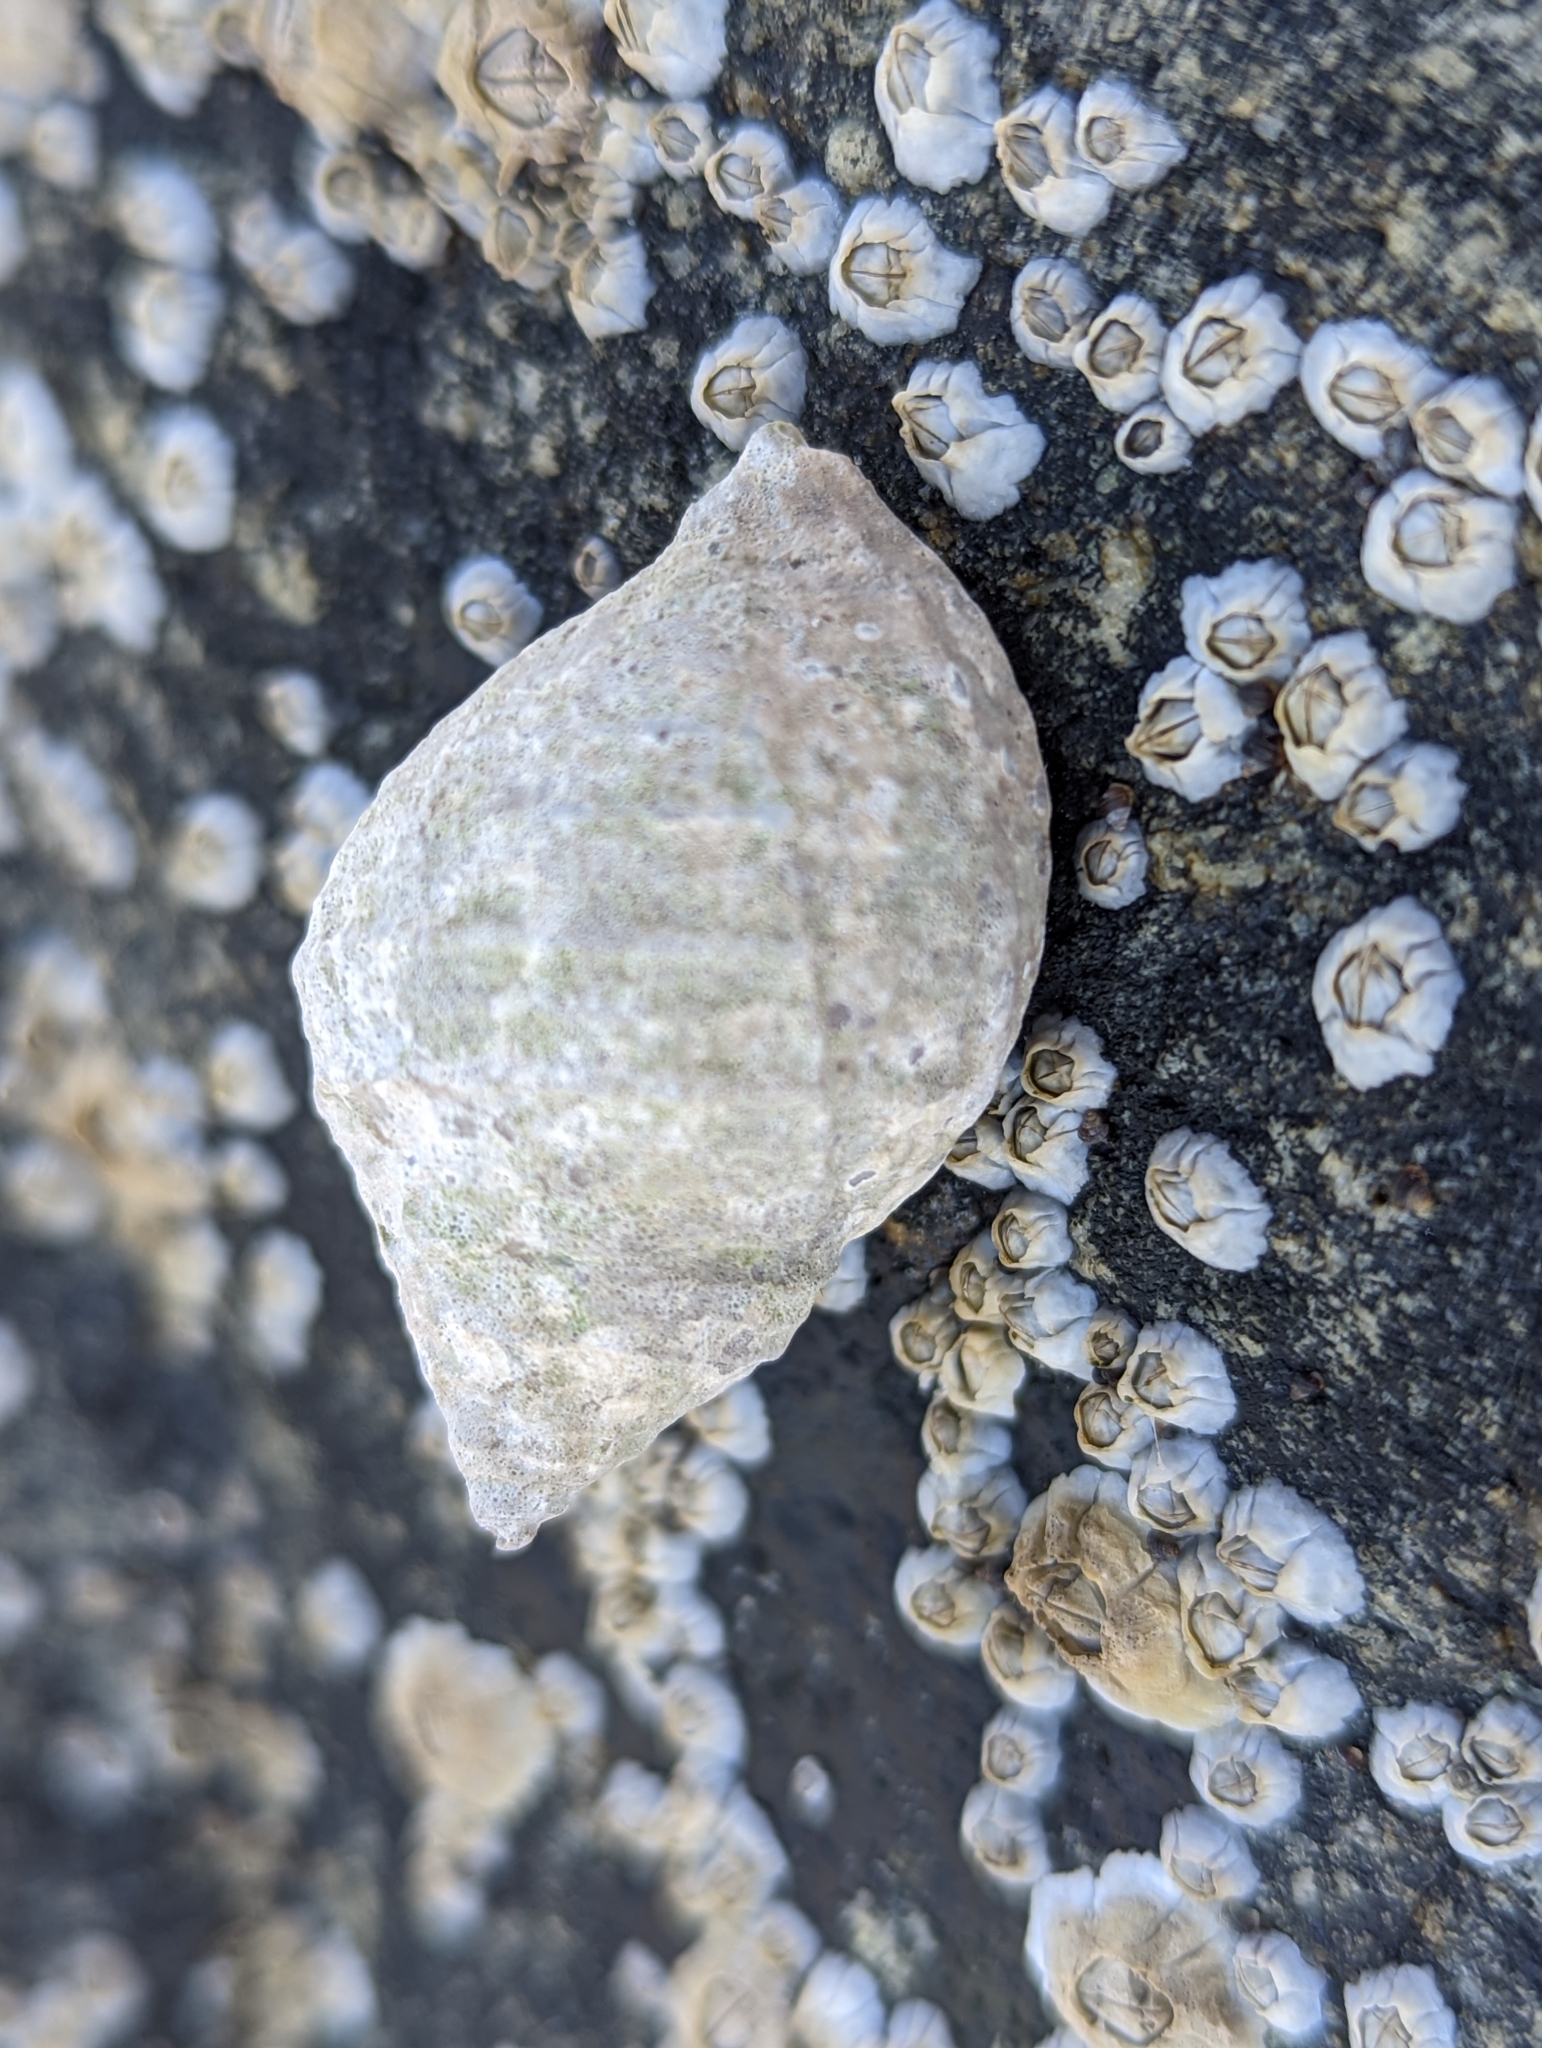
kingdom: Animalia
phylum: Mollusca
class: Gastropoda
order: Neogastropoda
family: Muricidae
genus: Nucella
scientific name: Nucella lapillus
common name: Dog whelk
